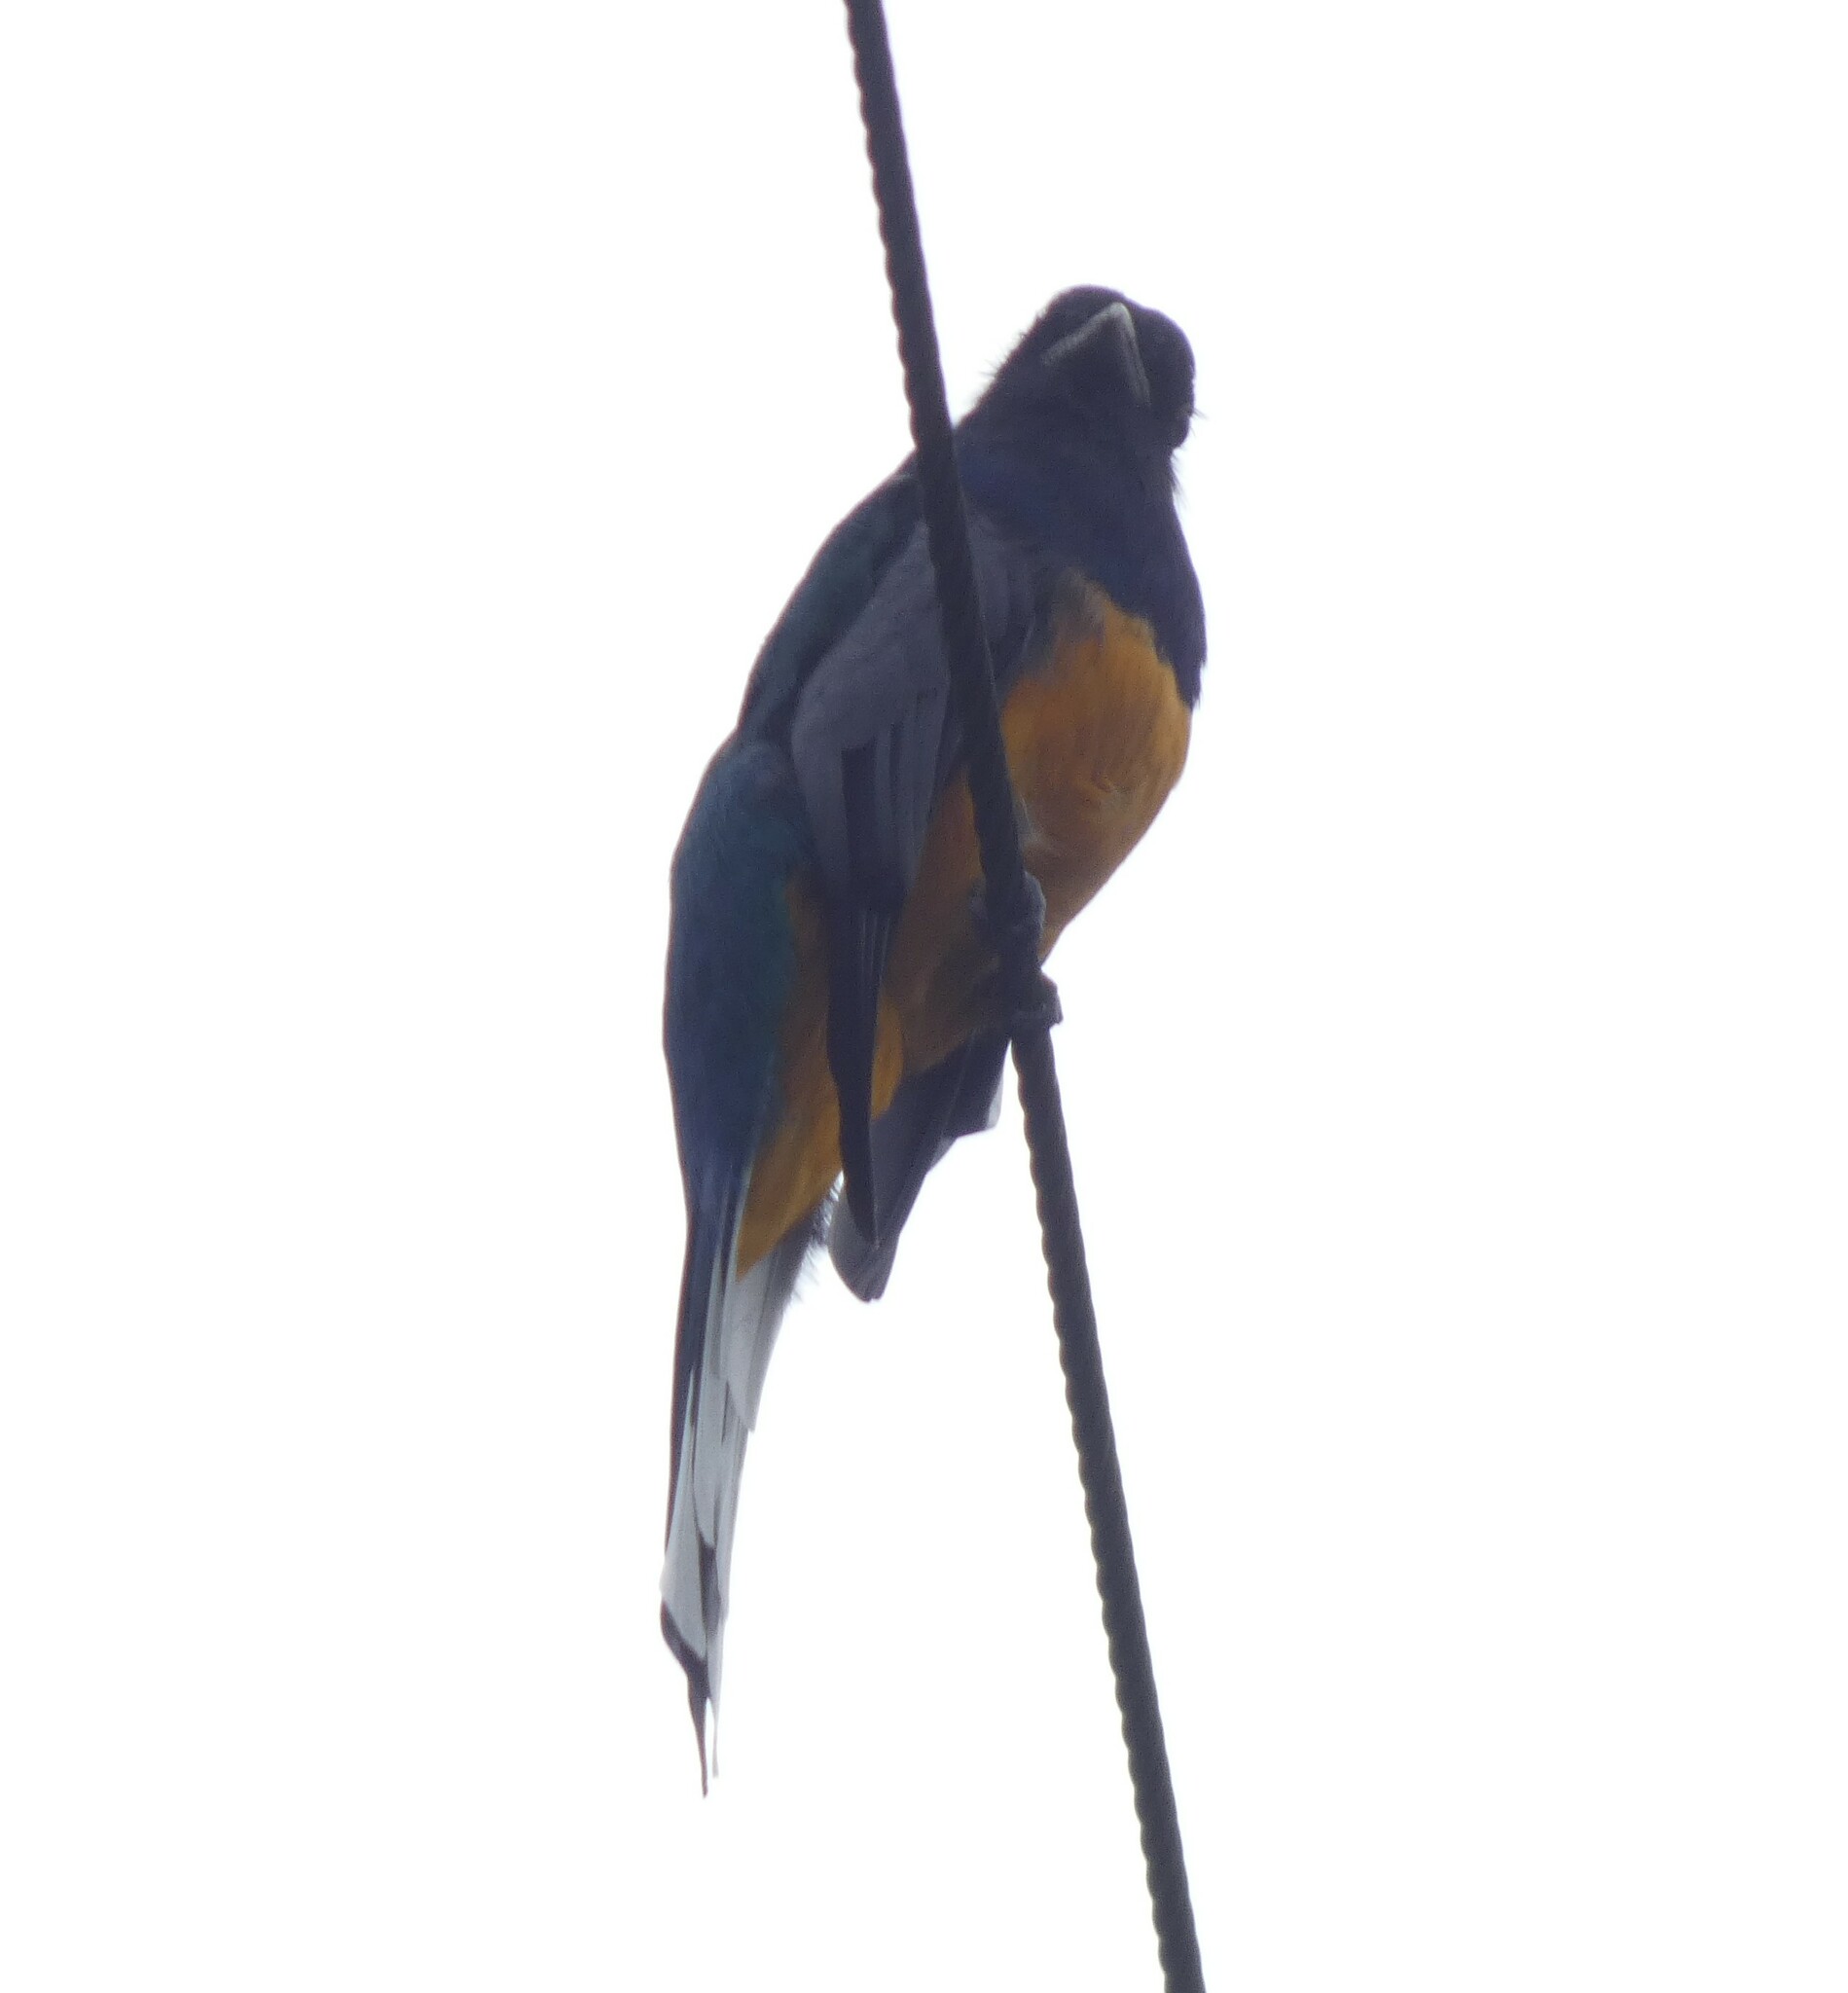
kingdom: Animalia
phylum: Chordata
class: Aves
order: Trogoniformes
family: Trogonidae
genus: Trogon
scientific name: Trogon surrucura
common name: Surucua trogon
